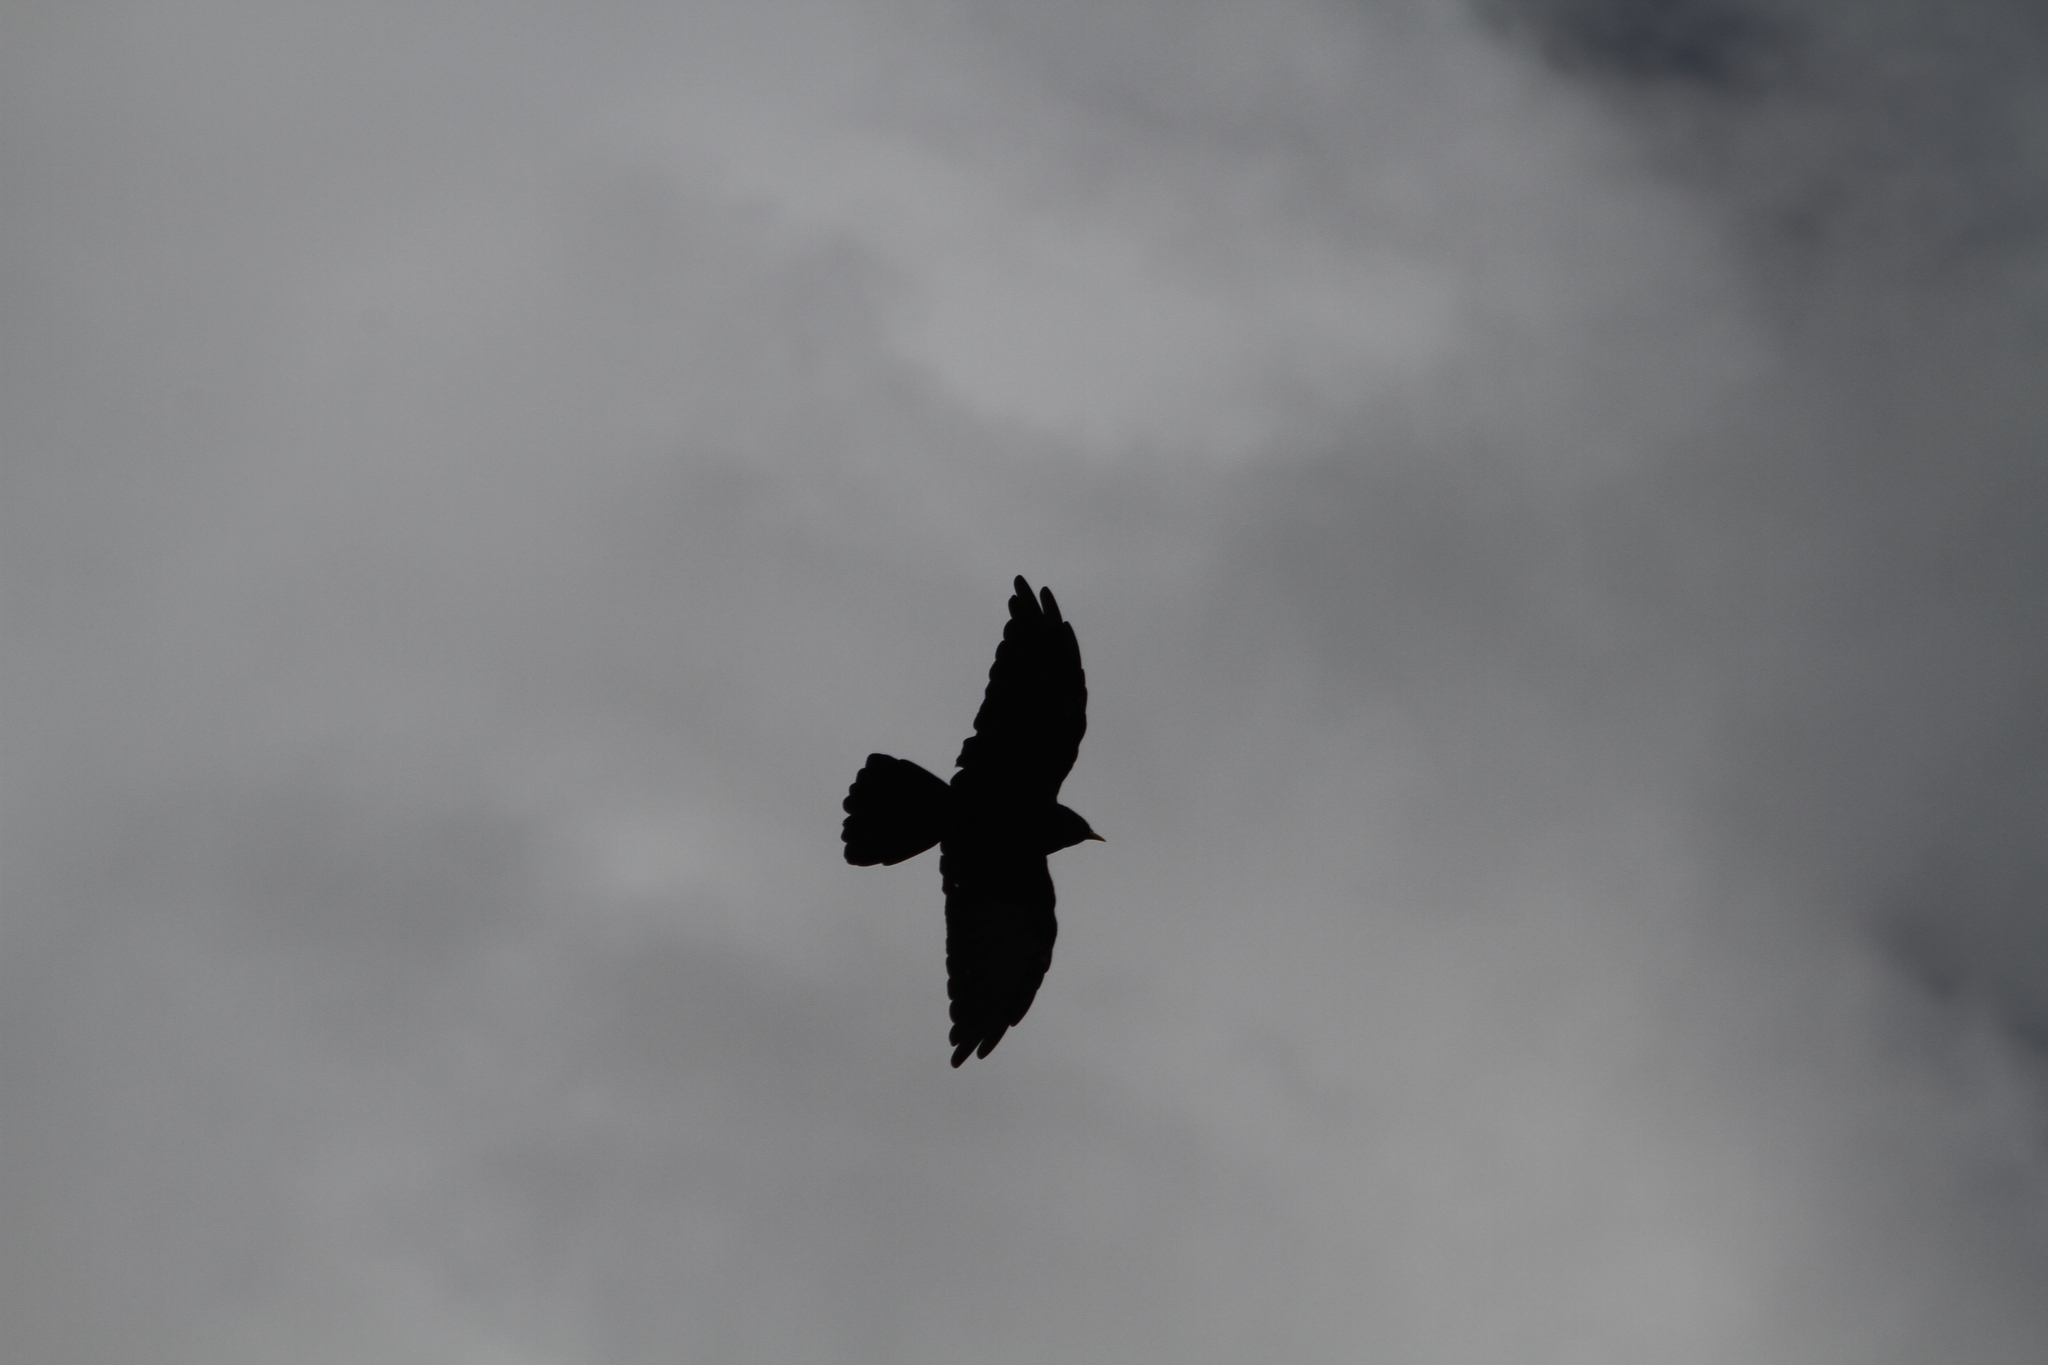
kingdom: Animalia
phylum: Chordata
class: Aves
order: Passeriformes
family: Corvidae
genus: Pyrrhocorax
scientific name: Pyrrhocorax graculus
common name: Alpine chough
